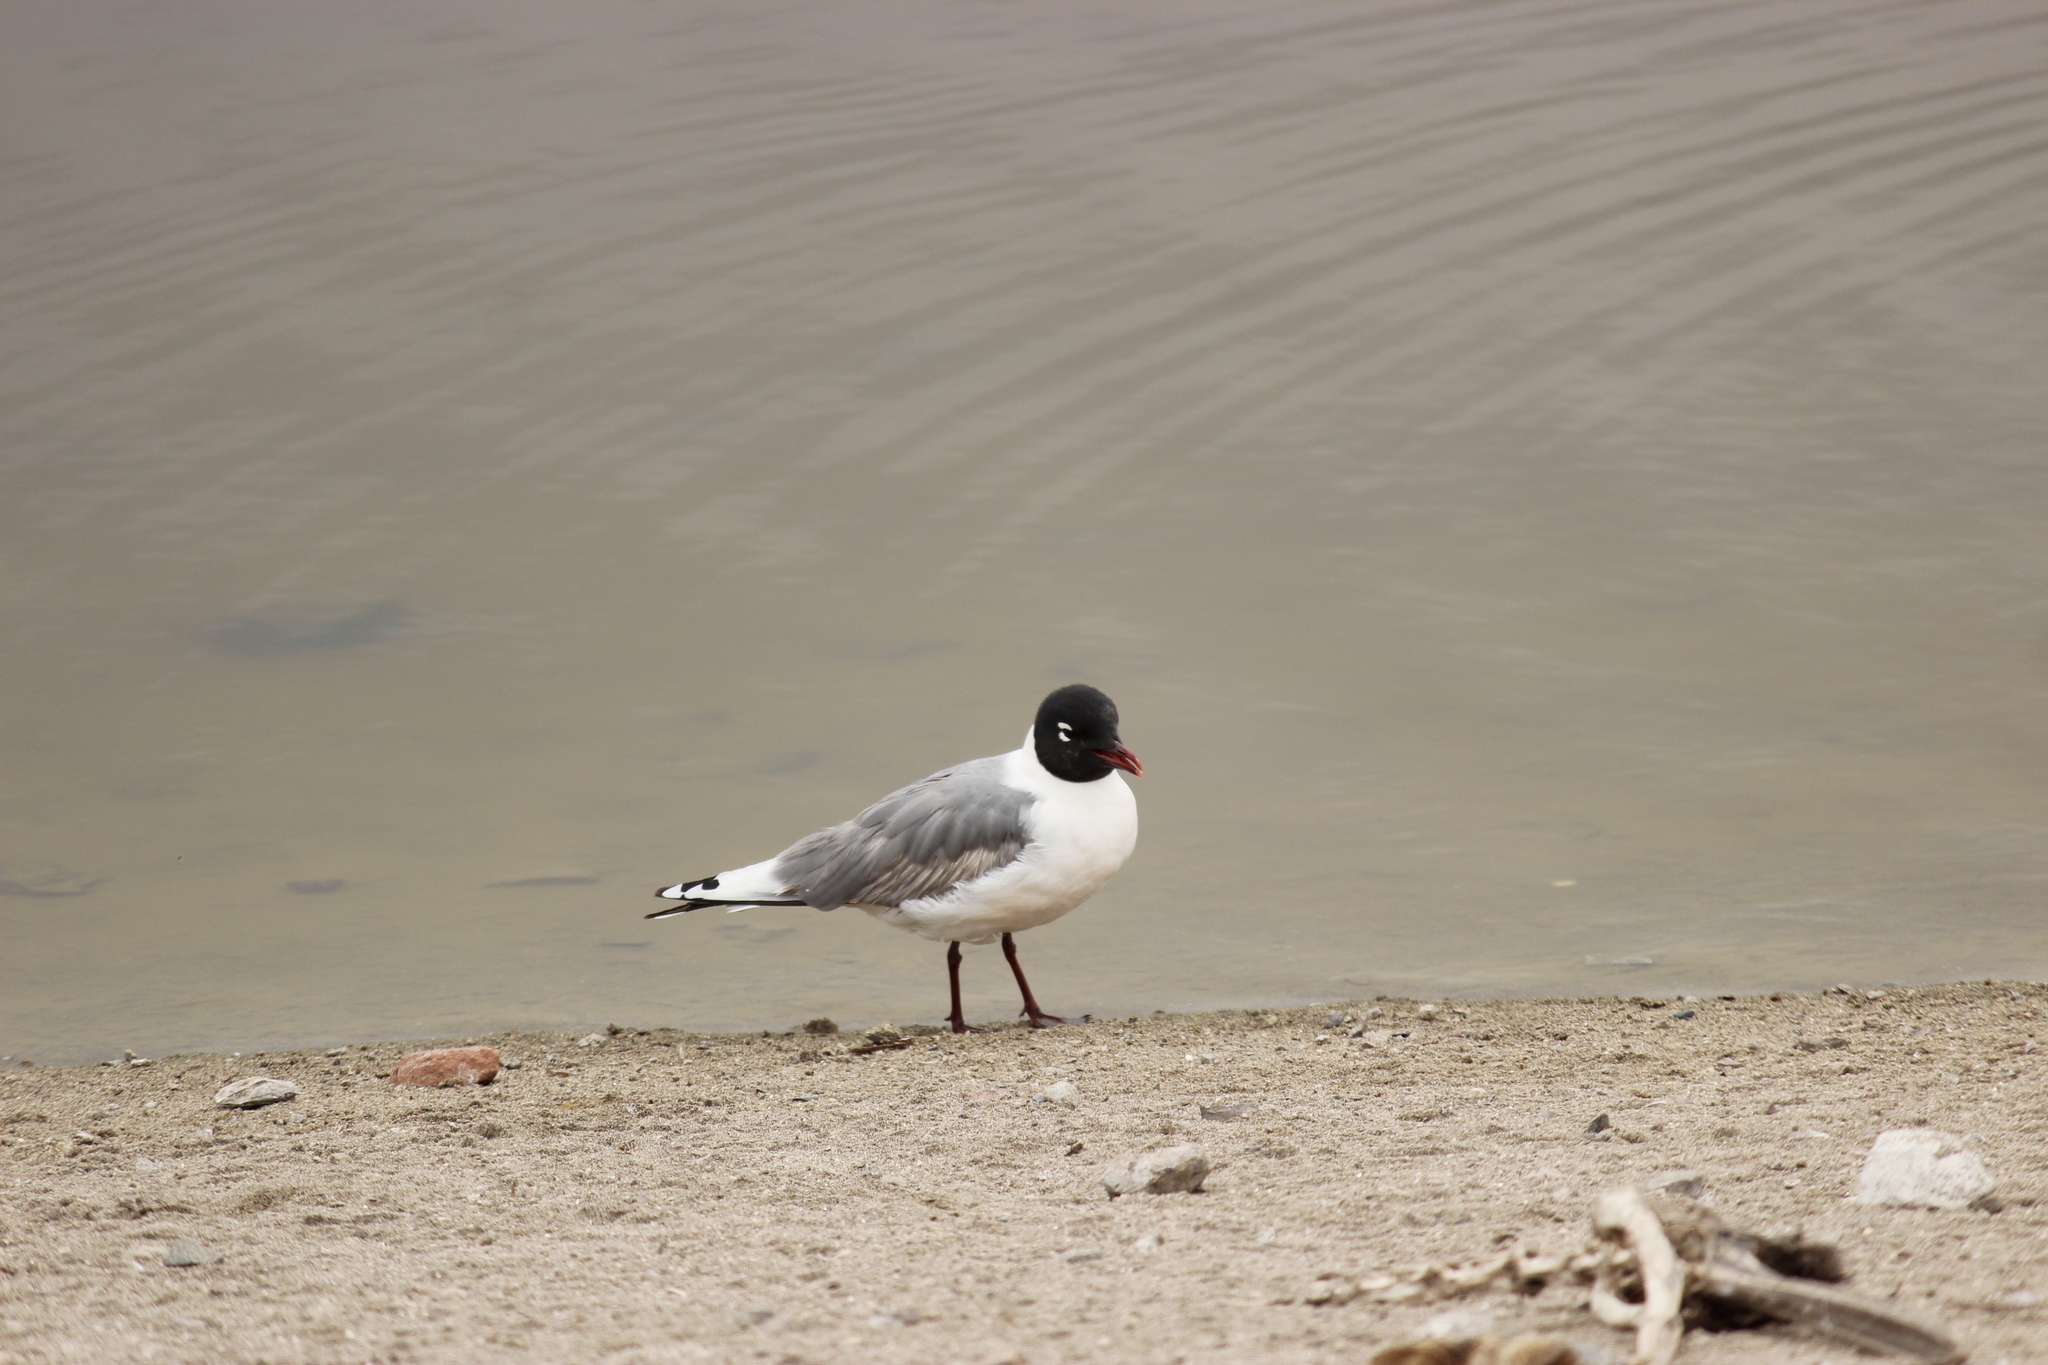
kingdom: Animalia
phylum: Chordata
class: Aves
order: Charadriiformes
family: Laridae
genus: Leucophaeus
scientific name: Leucophaeus pipixcan
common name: Franklin's gull
